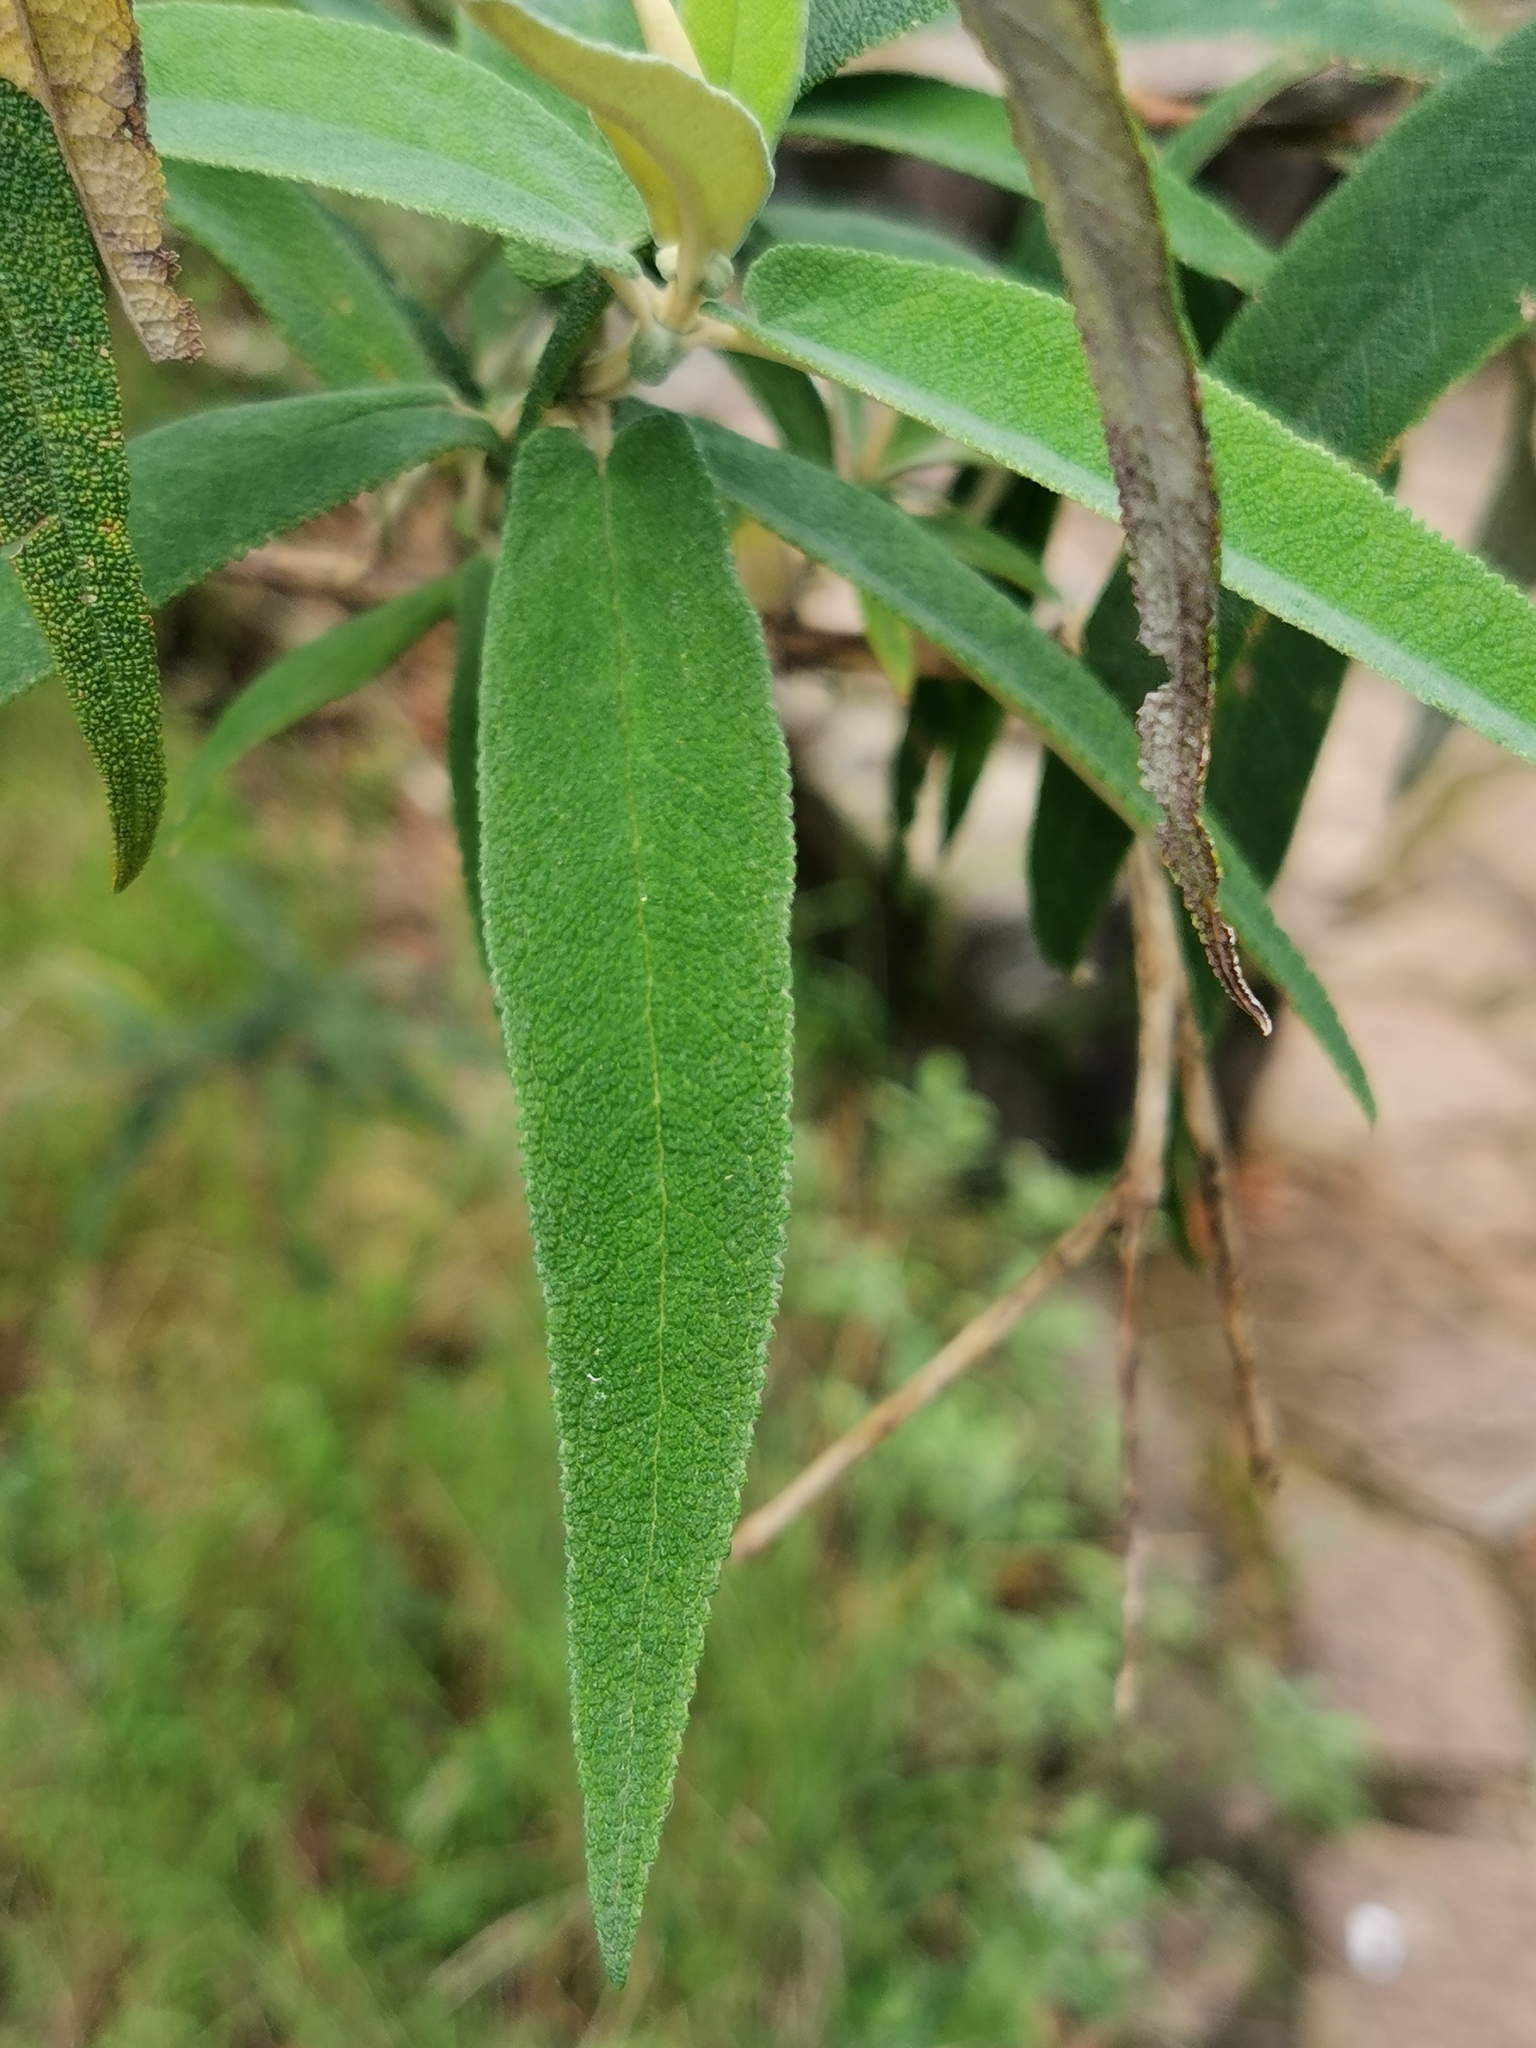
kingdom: Plantae
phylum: Tracheophyta
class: Magnoliopsida
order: Lamiales
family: Scrophulariaceae
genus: Buddleja
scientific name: Buddleja salviifolia
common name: Sagewood
